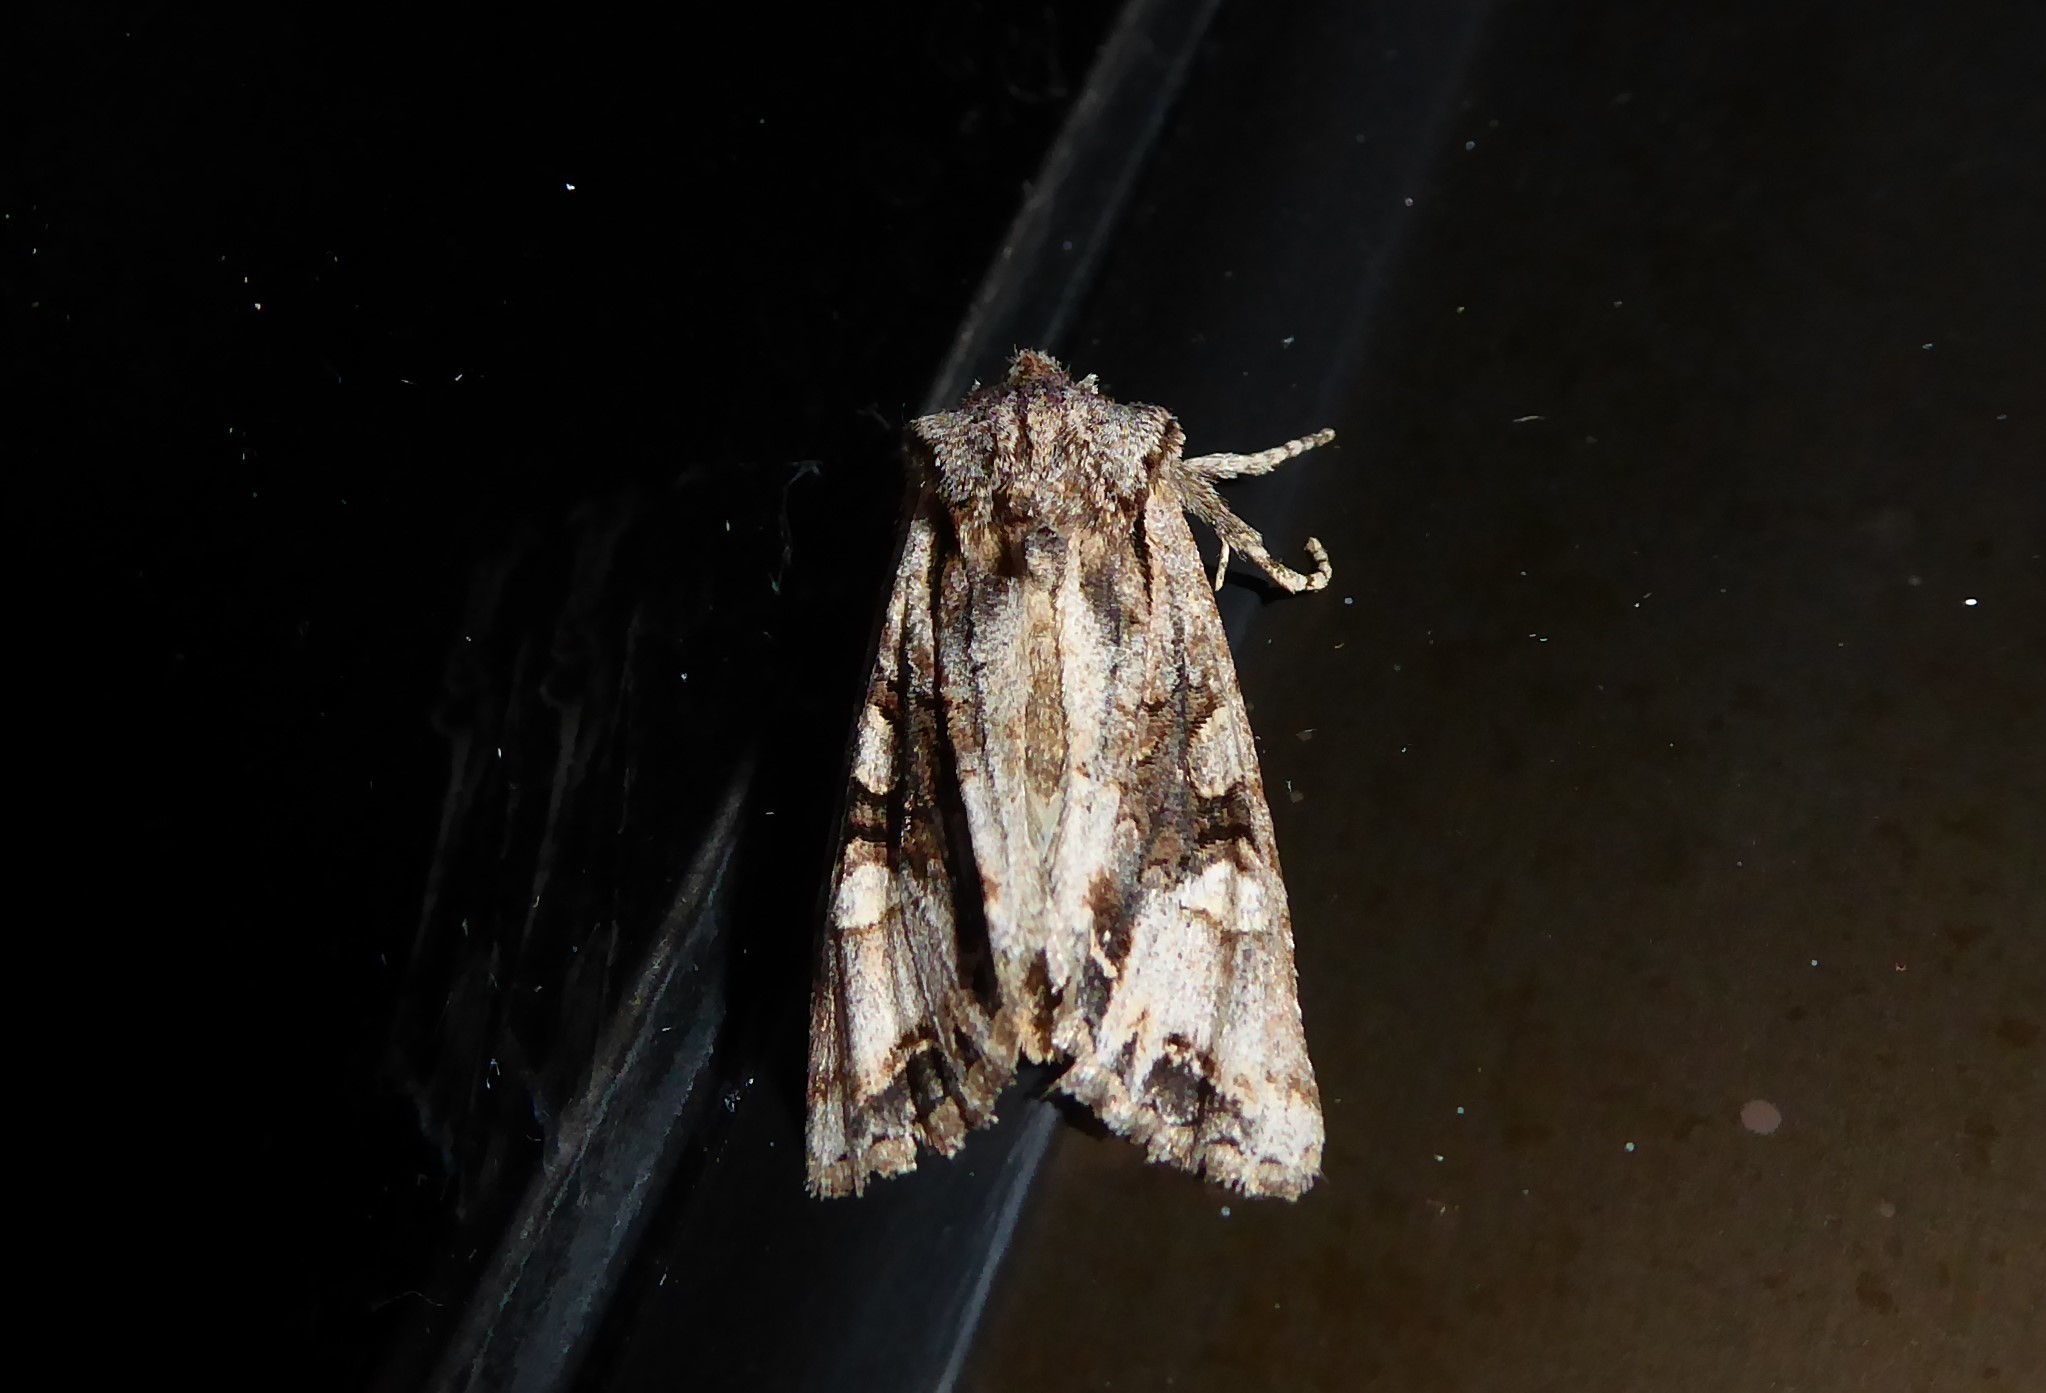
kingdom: Animalia
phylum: Arthropoda
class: Insecta
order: Lepidoptera
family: Noctuidae
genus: Ichneutica
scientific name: Ichneutica
